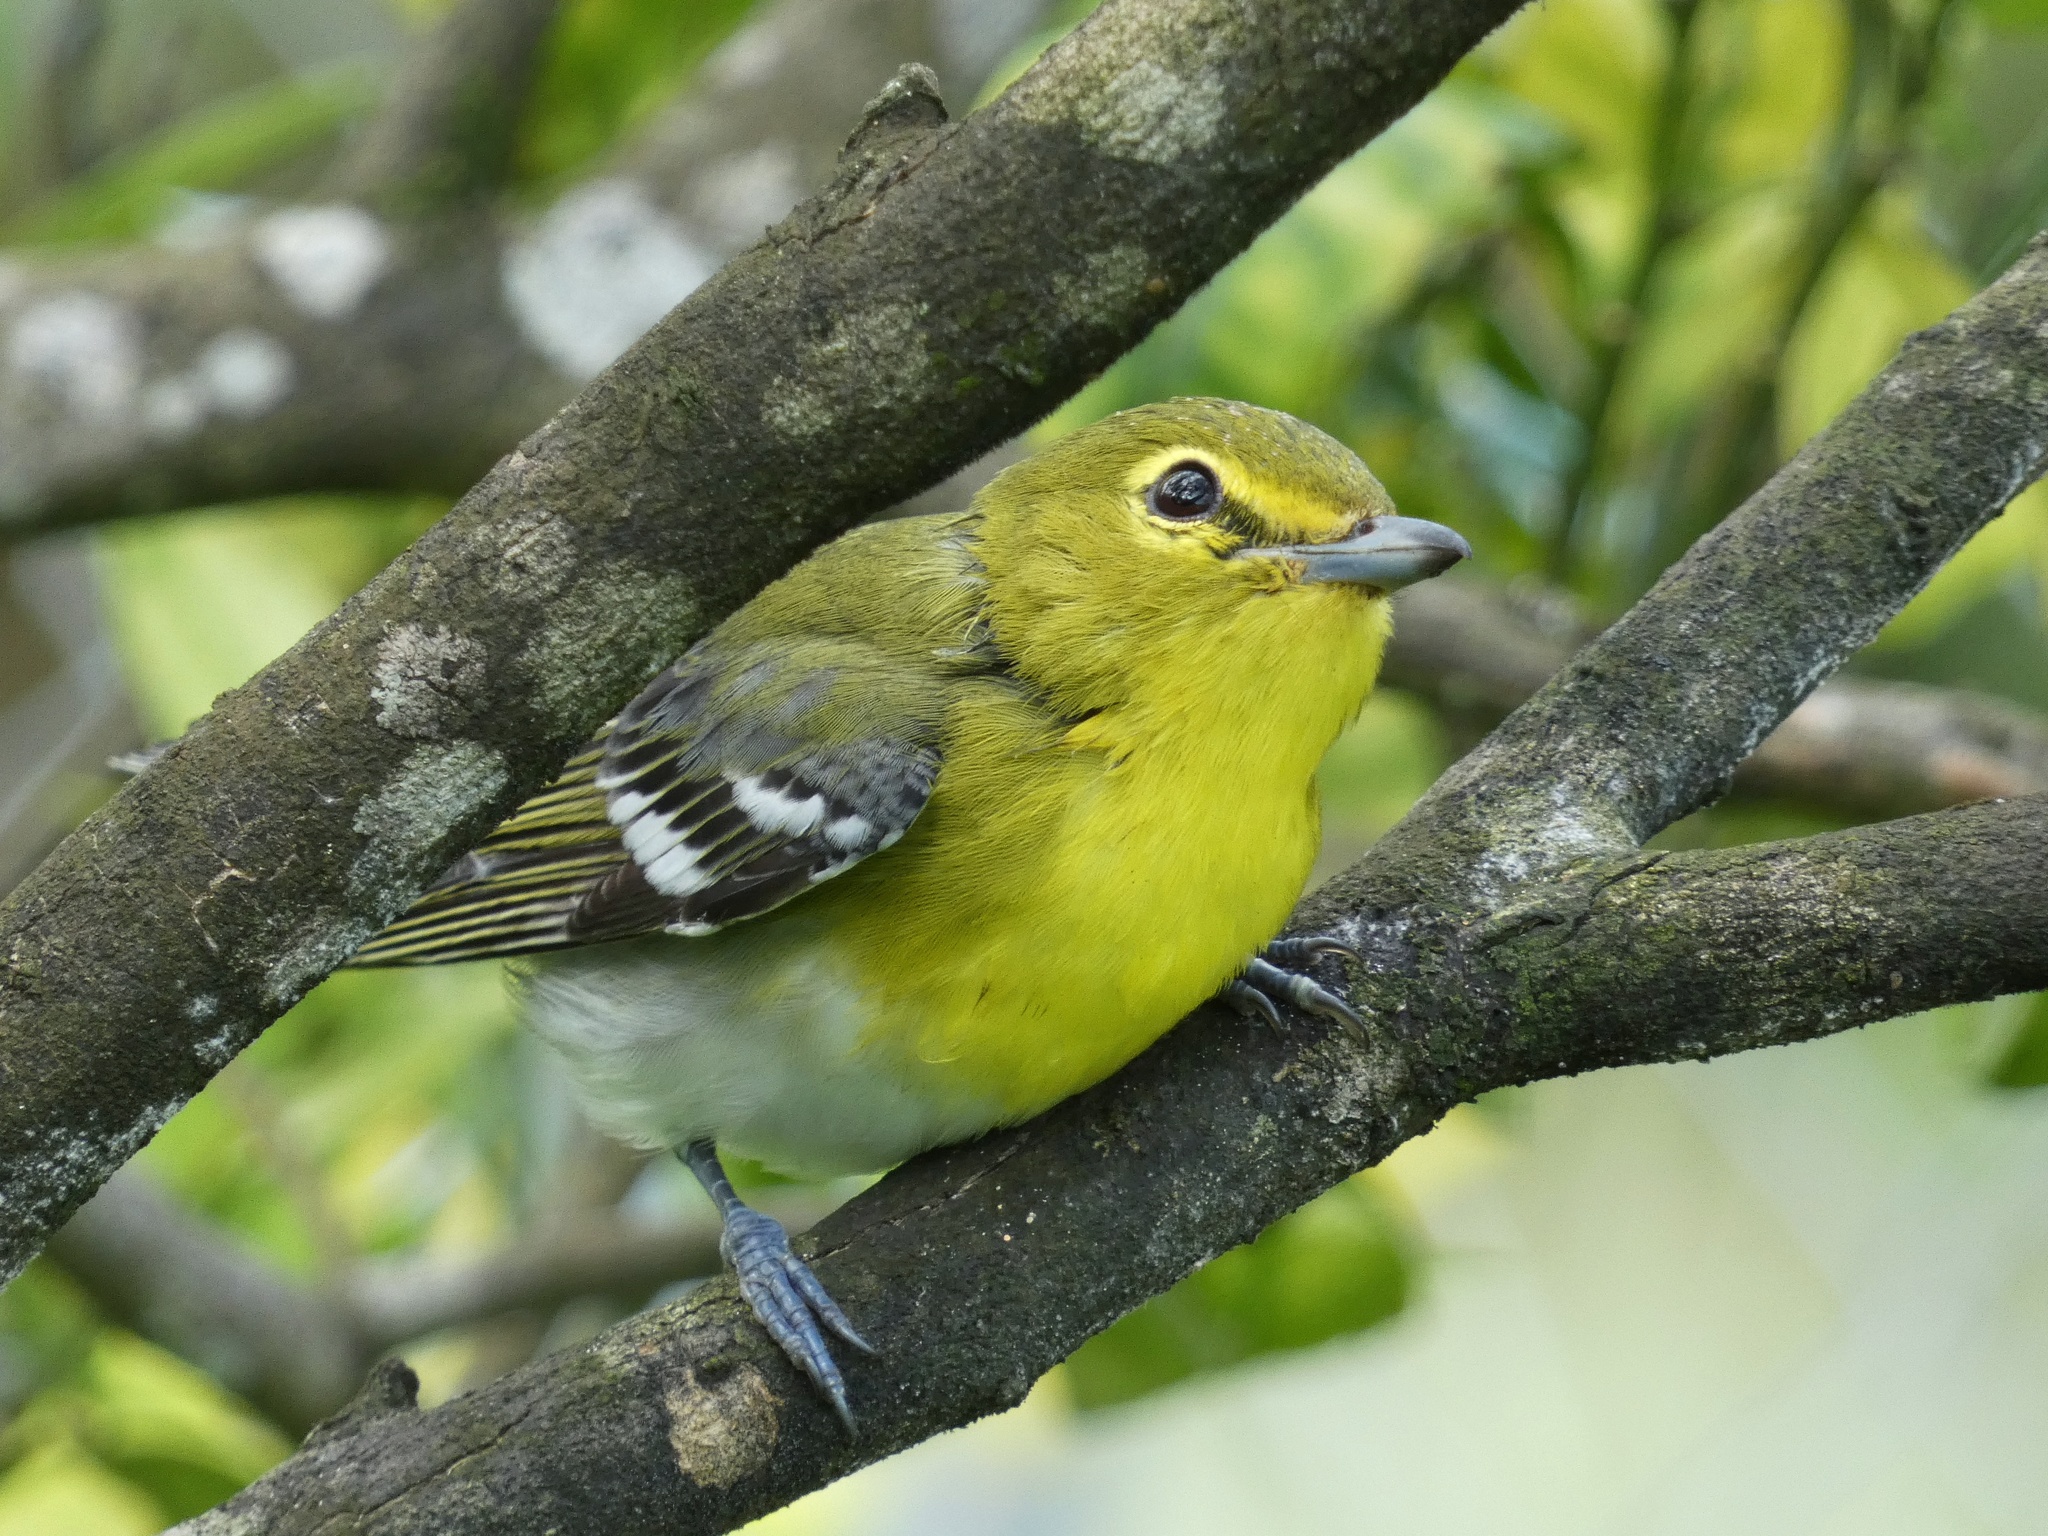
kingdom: Animalia
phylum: Chordata
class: Aves
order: Passeriformes
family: Vireonidae
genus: Vireo
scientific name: Vireo flavifrons
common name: Yellow-throated vireo
